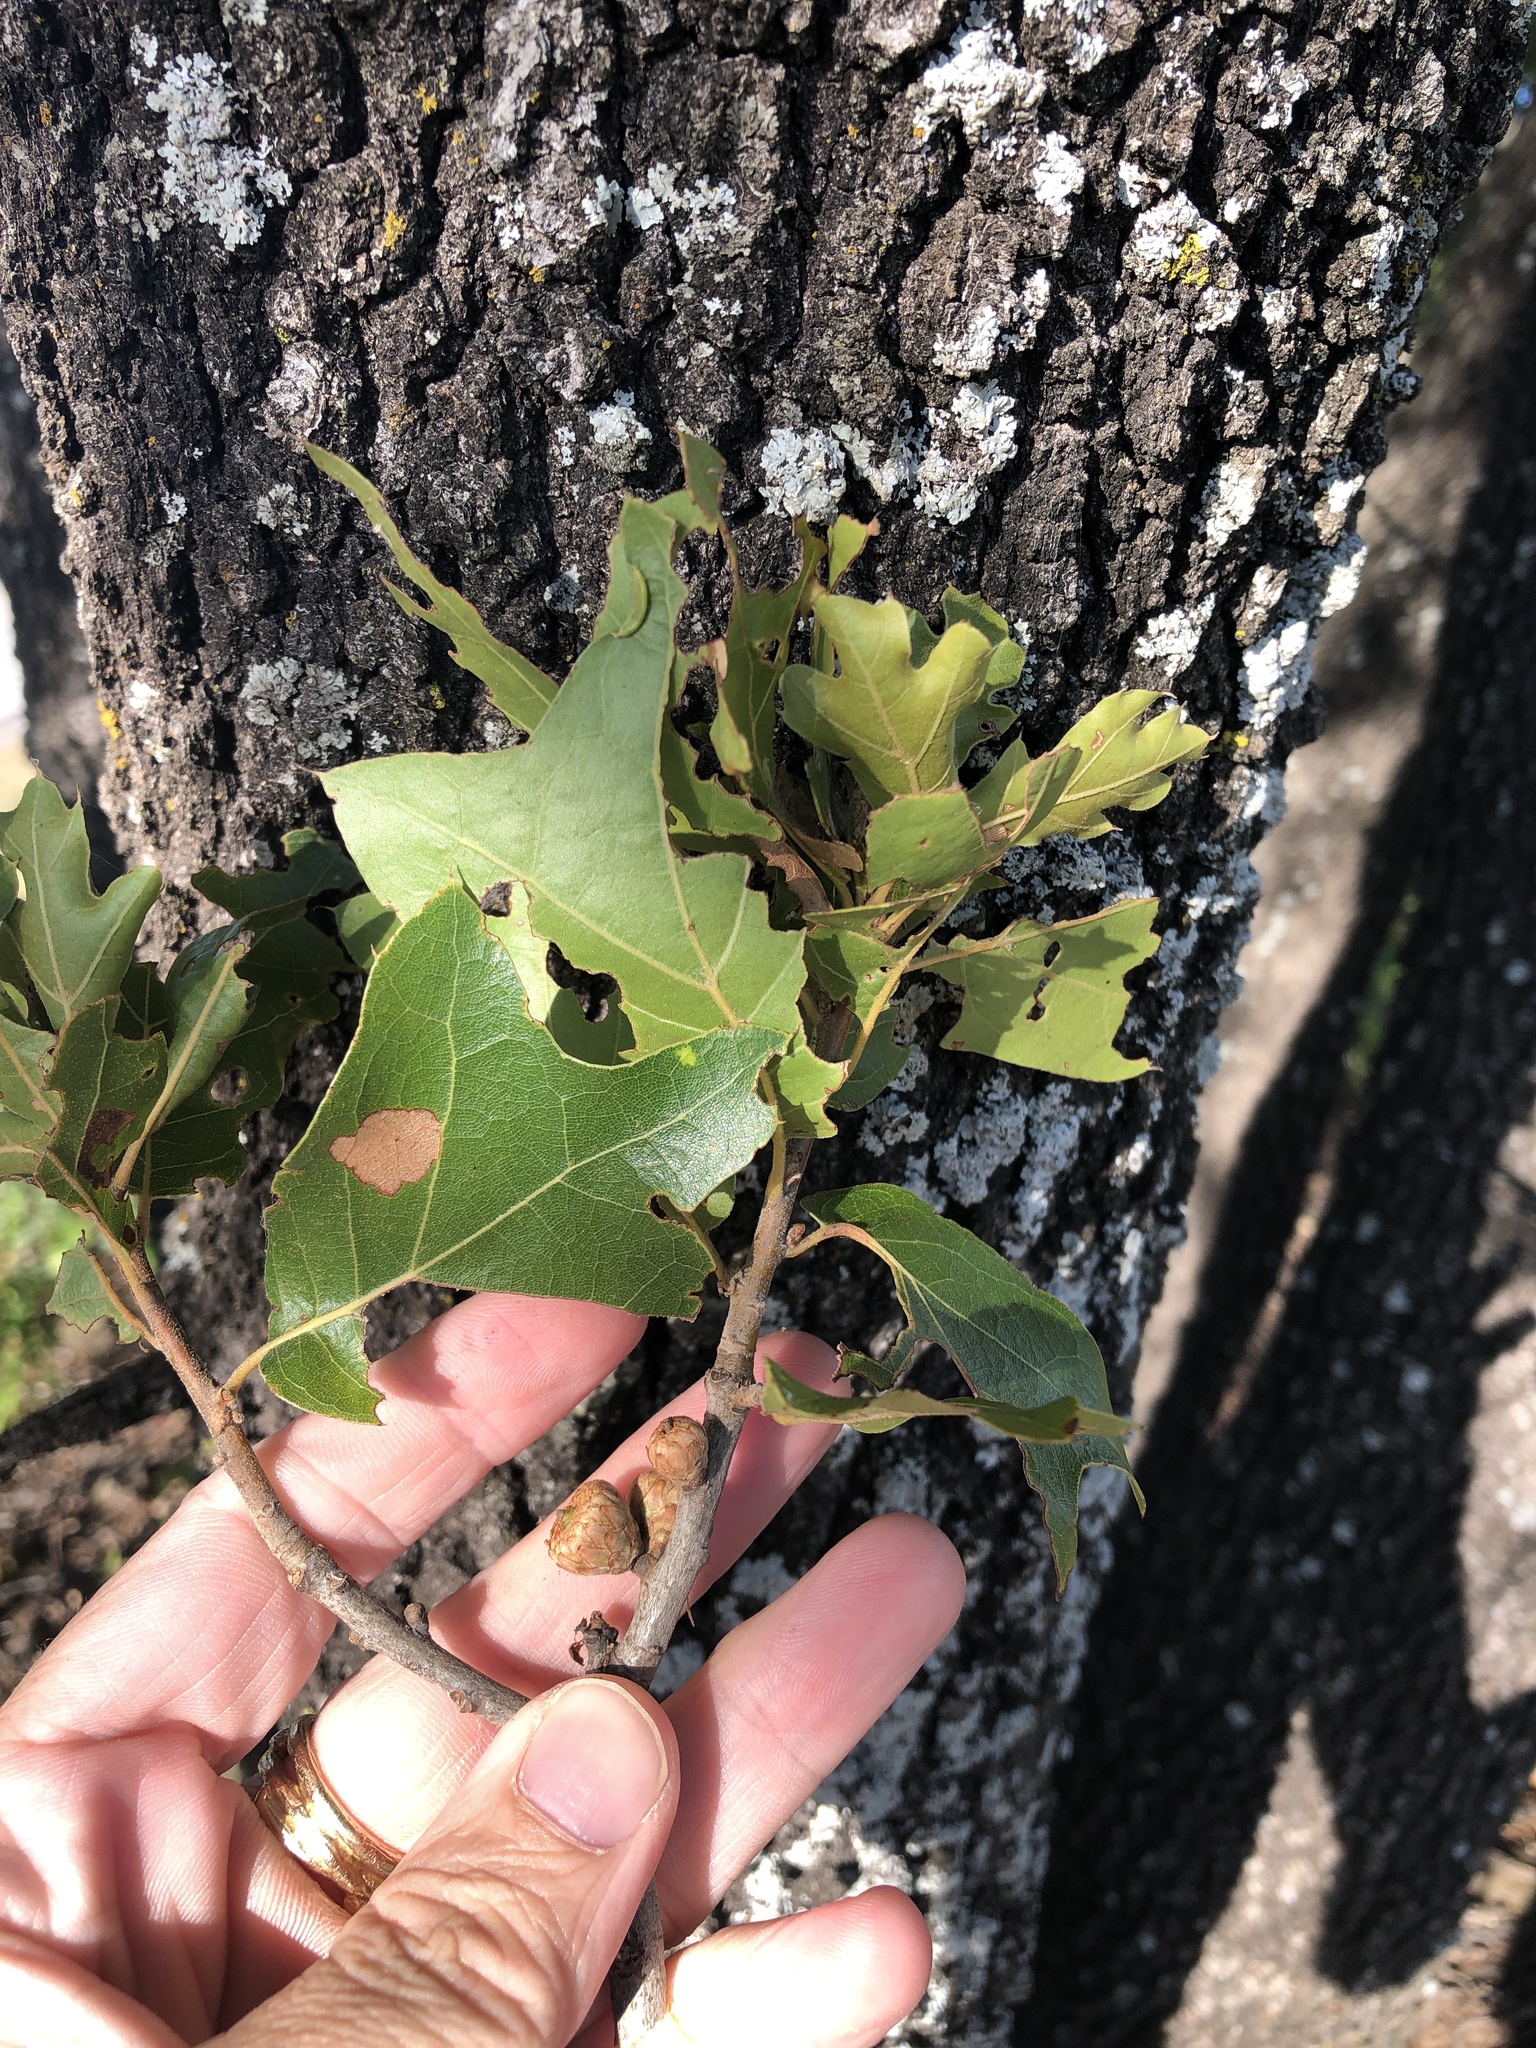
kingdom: Plantae
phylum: Tracheophyta
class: Magnoliopsida
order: Fagales
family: Fagaceae
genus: Quercus
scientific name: Quercus marilandica
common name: Blackjack oak
